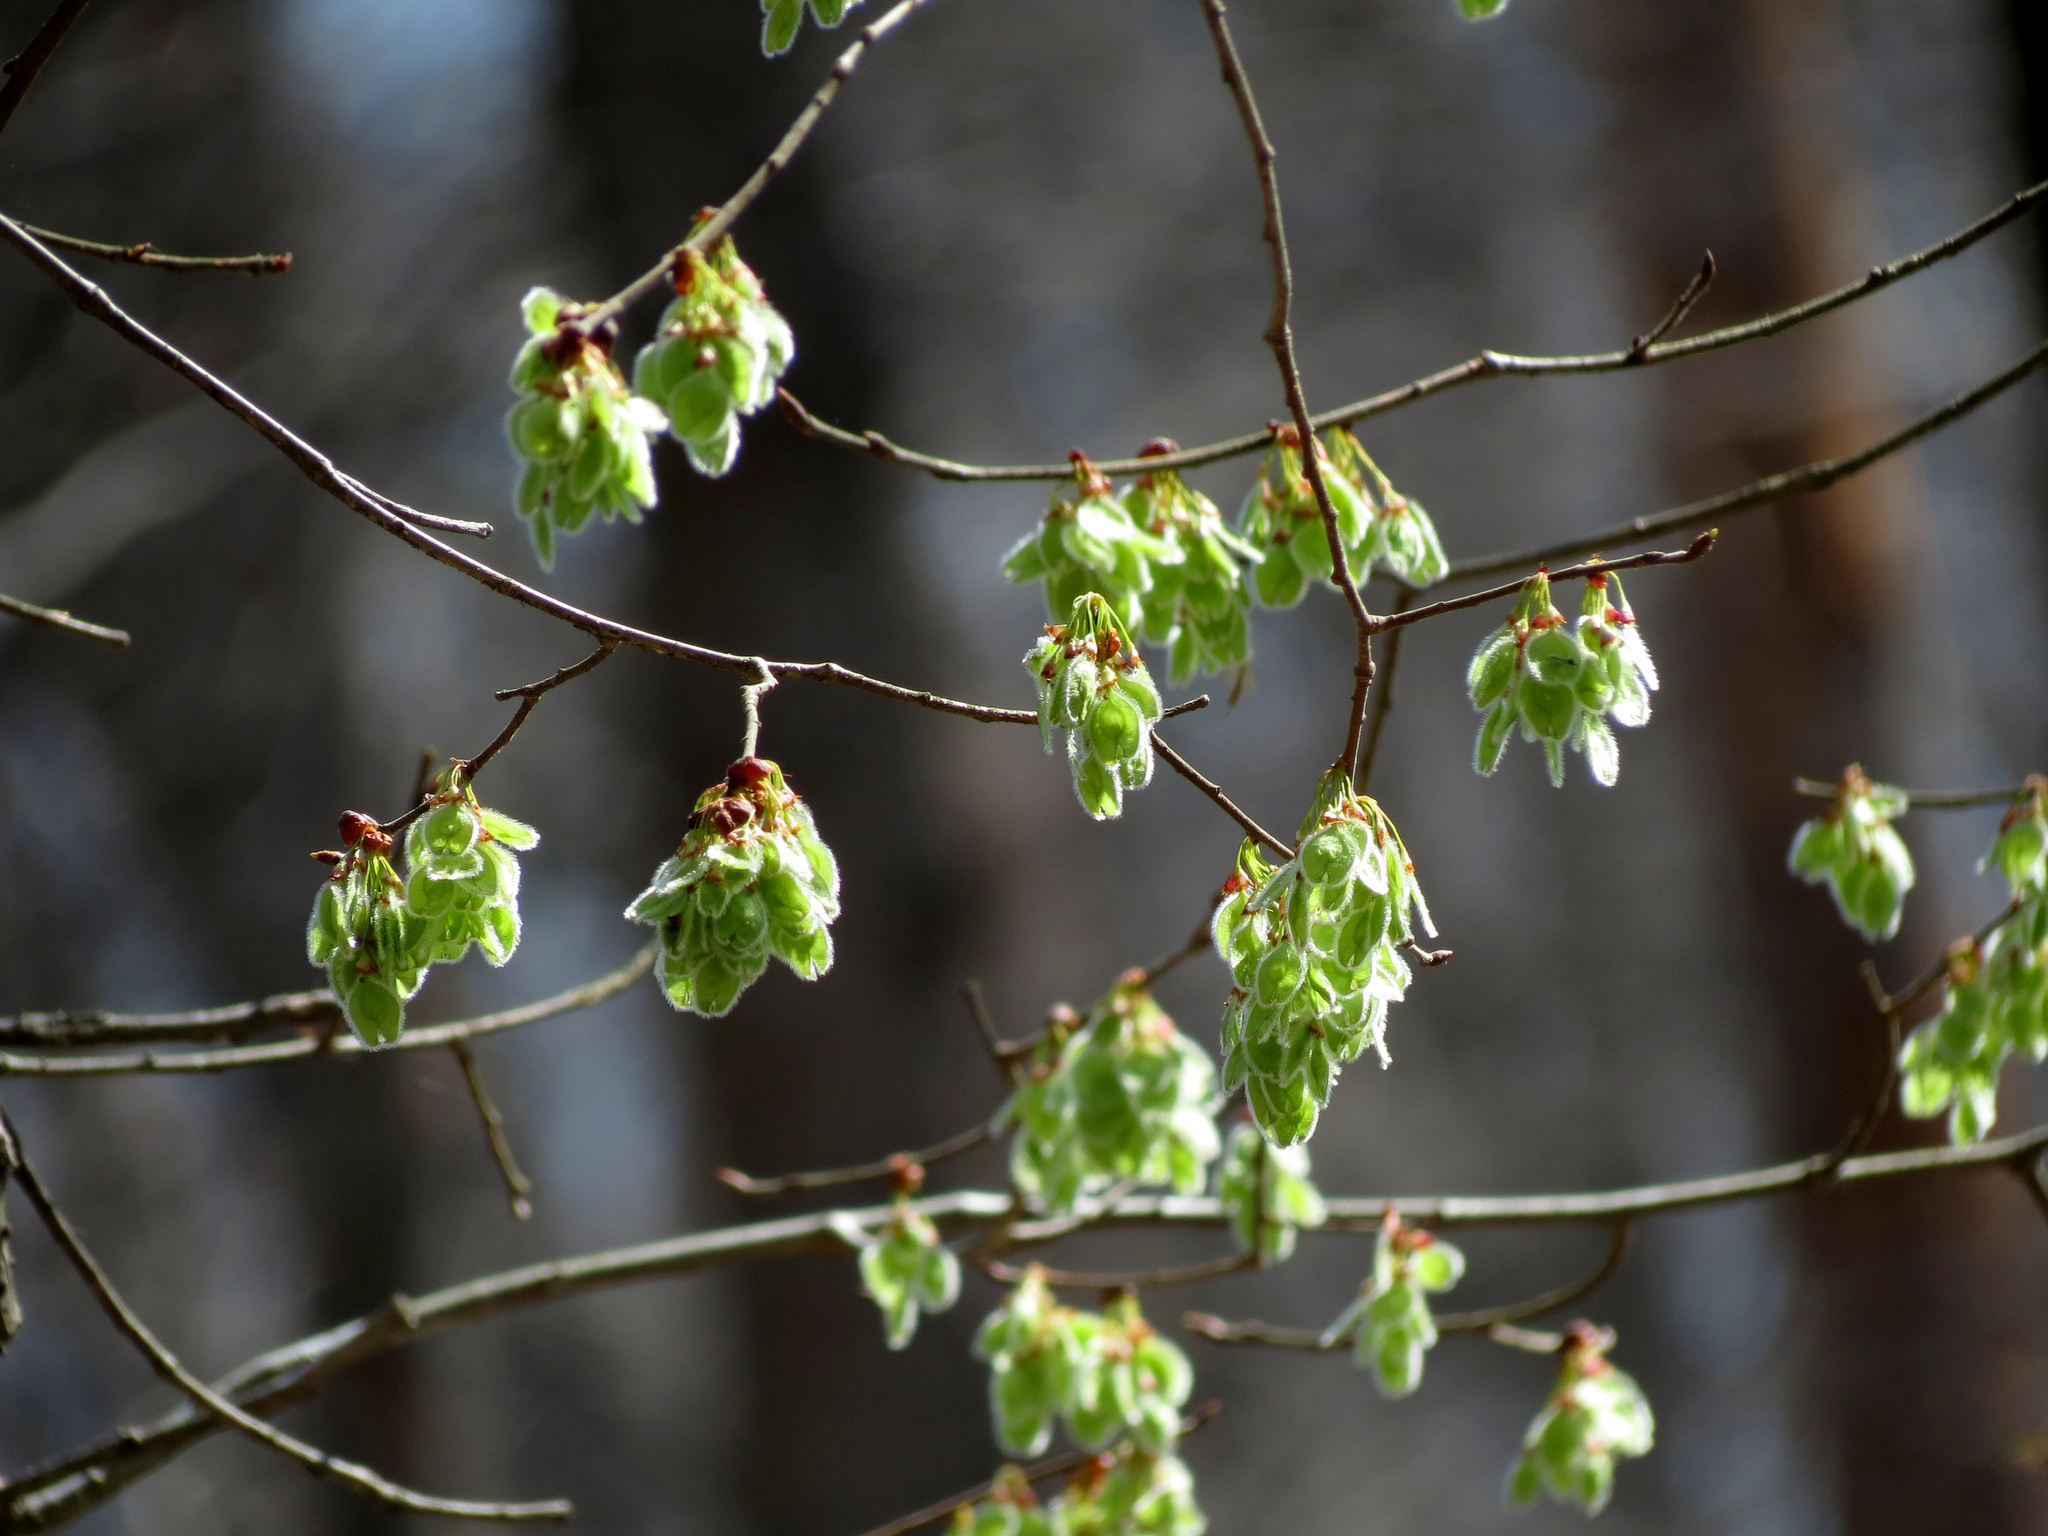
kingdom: Plantae
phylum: Tracheophyta
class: Magnoliopsida
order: Rosales
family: Ulmaceae
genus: Ulmus
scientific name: Ulmus americana
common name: American elm
